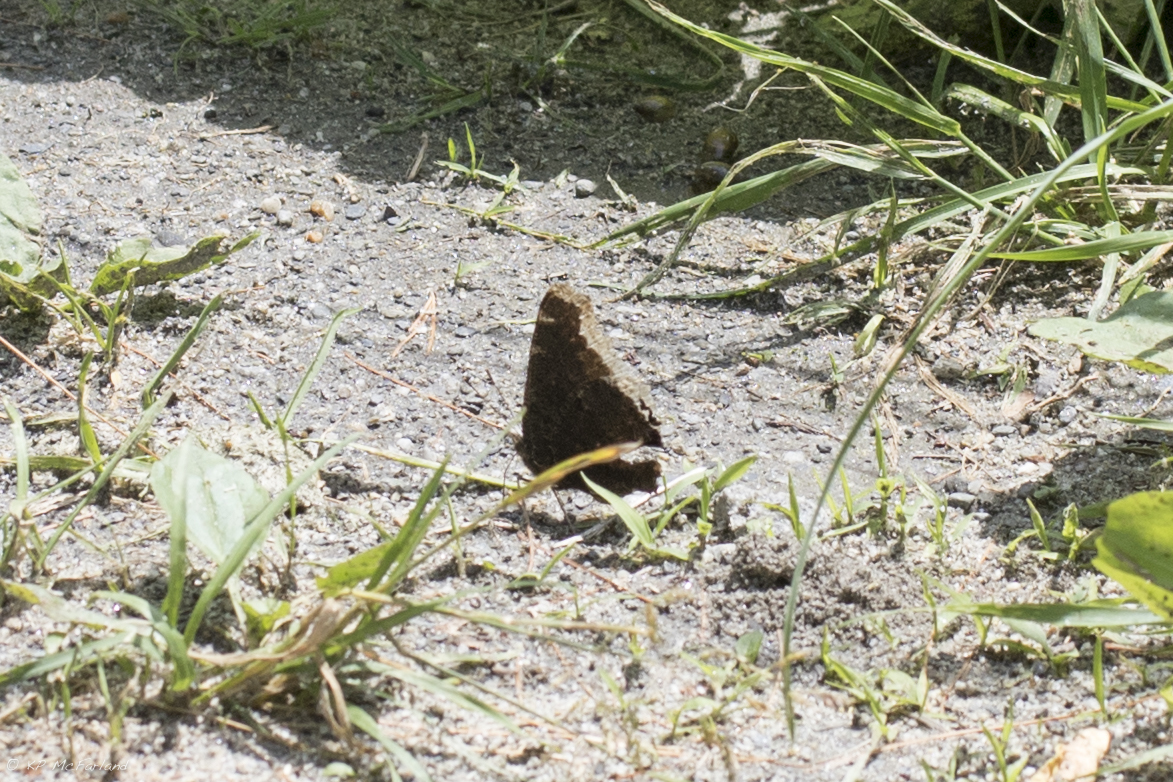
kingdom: Animalia
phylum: Arthropoda
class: Insecta
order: Lepidoptera
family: Nymphalidae
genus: Nymphalis
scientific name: Nymphalis antiopa
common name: Camberwell beauty
